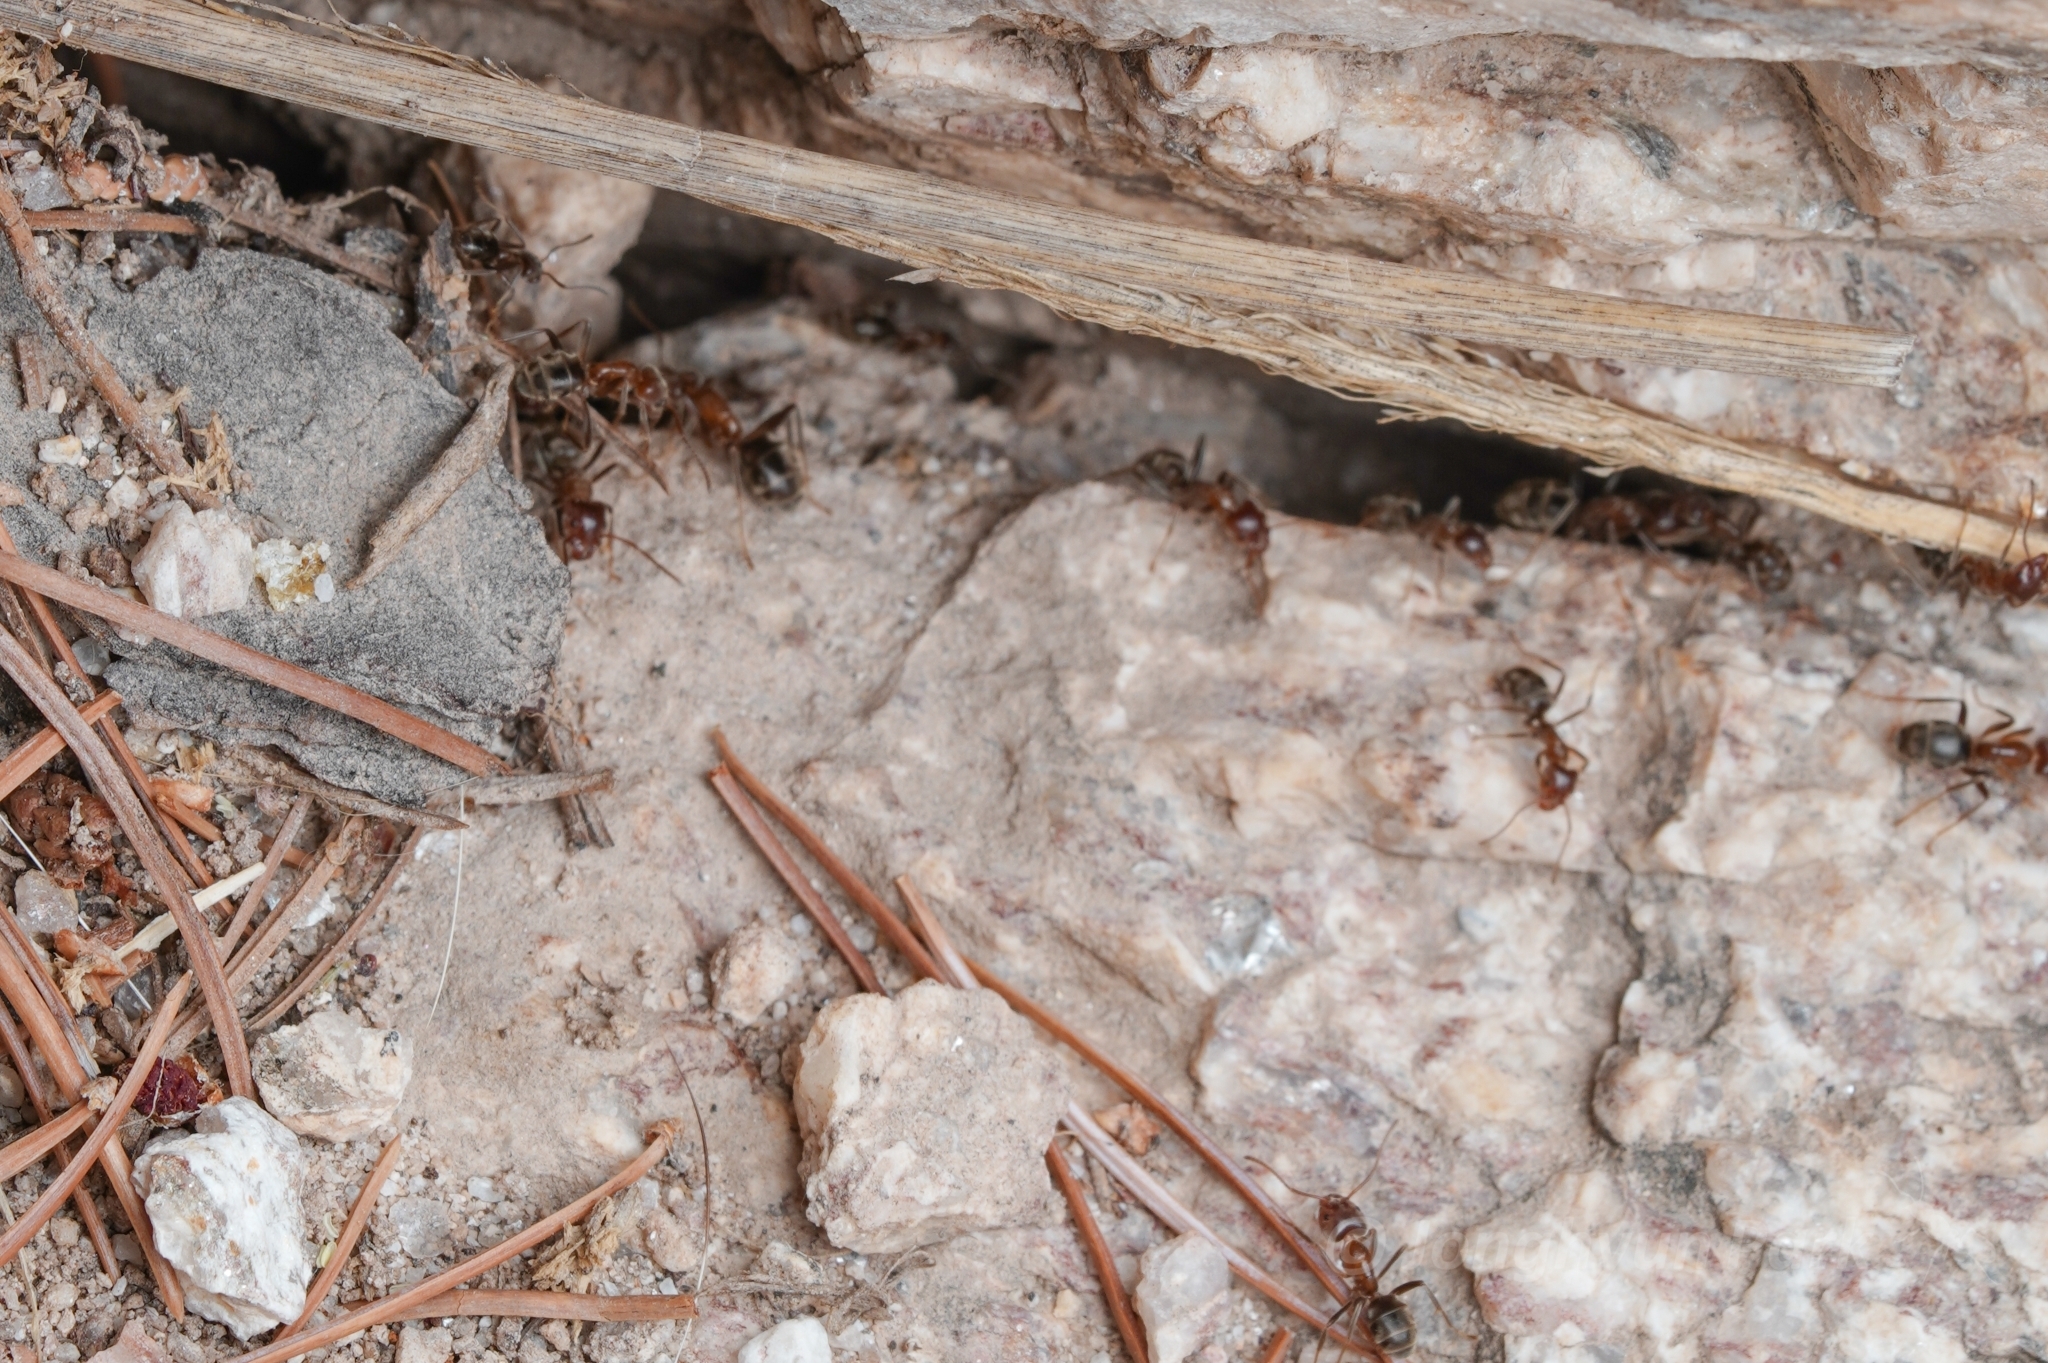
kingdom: Animalia
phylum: Arthropoda
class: Insecta
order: Hymenoptera
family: Formicidae
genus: Liometopum
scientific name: Liometopum apiculatum
